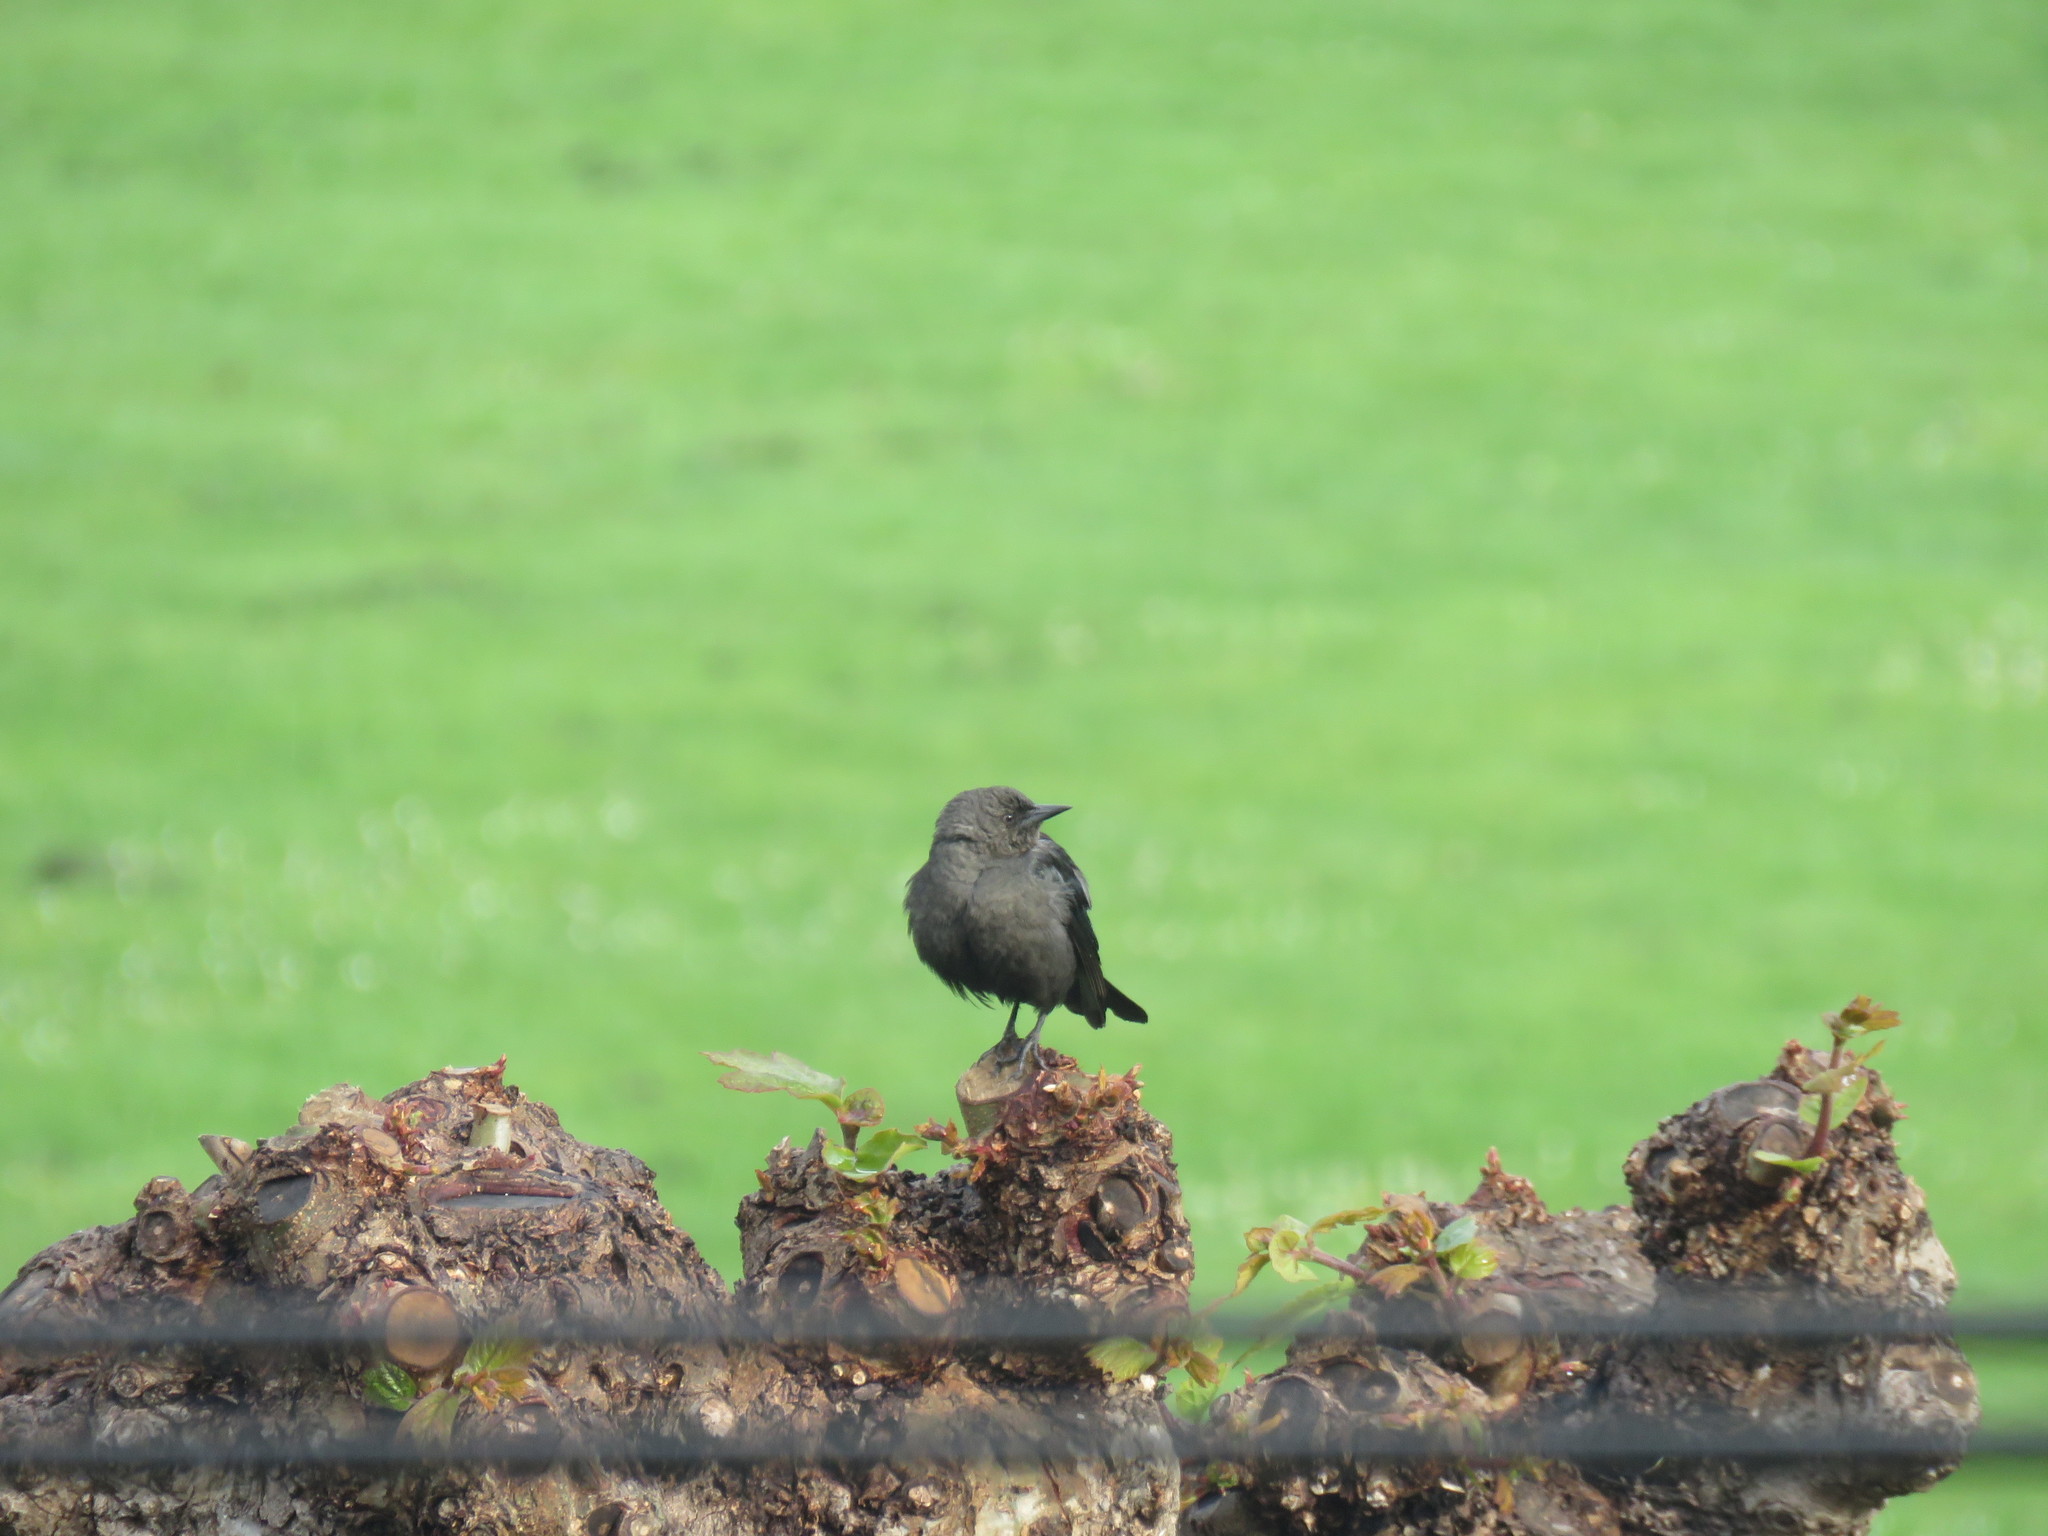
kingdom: Animalia
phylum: Chordata
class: Aves
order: Passeriformes
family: Icteridae
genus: Euphagus
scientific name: Euphagus cyanocephalus
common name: Brewer's blackbird
